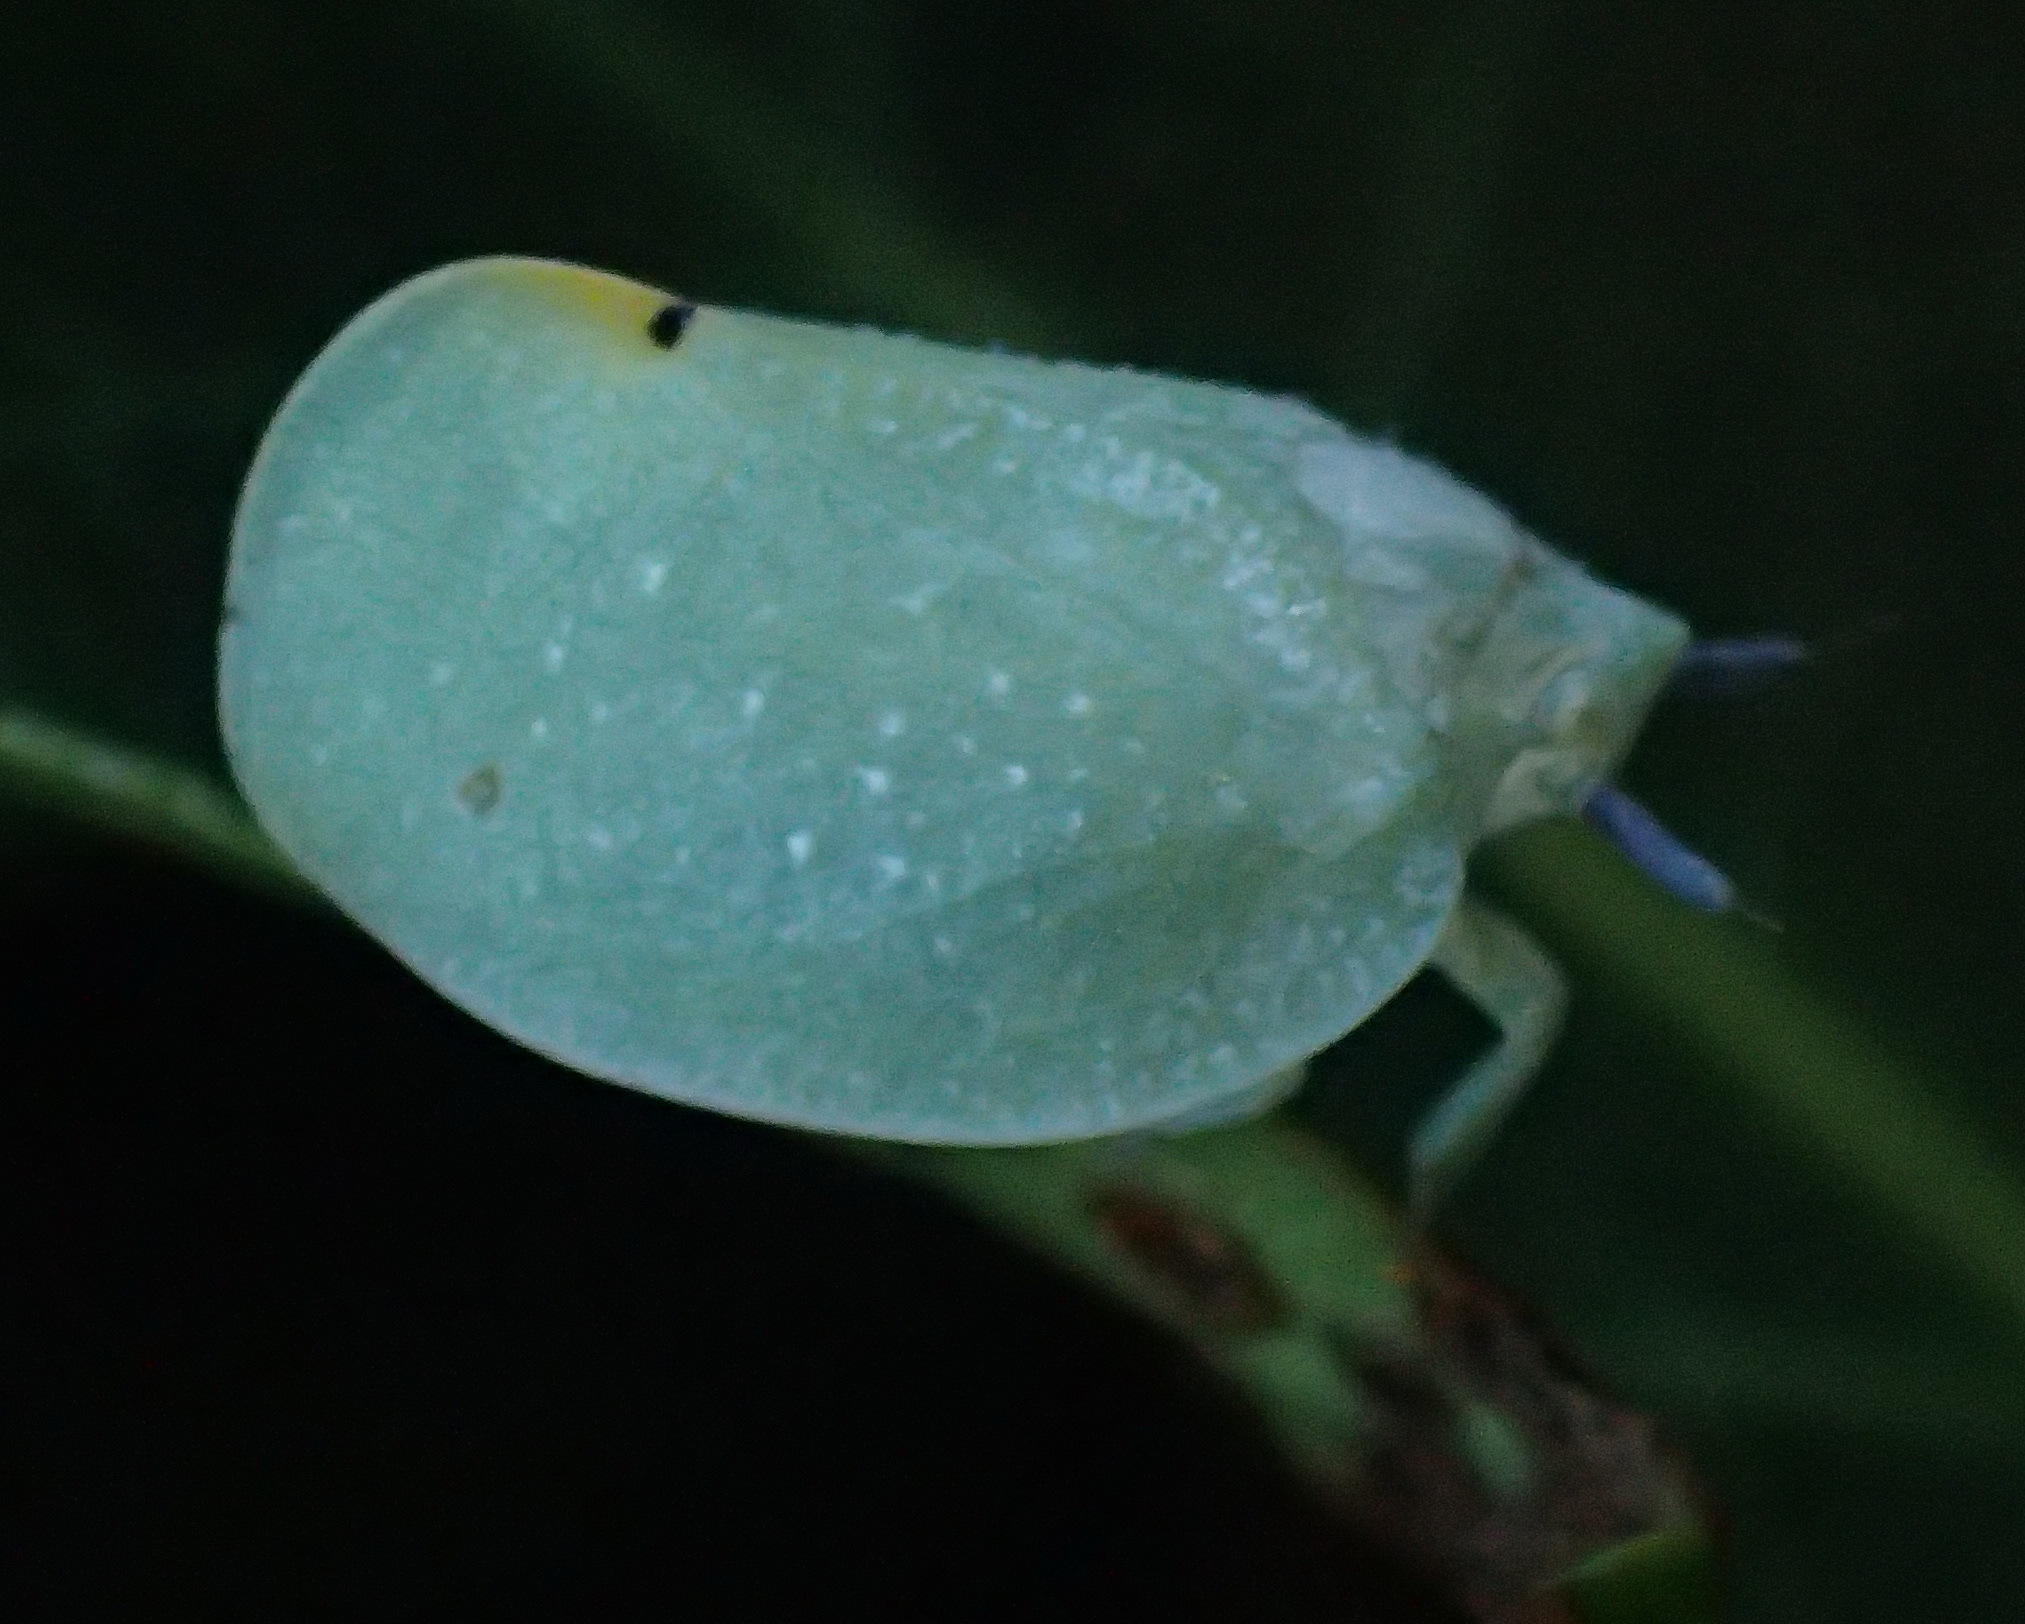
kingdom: Animalia
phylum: Arthropoda
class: Insecta
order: Hemiptera
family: Flatidae
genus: Dalapax
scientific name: Dalapax postica
